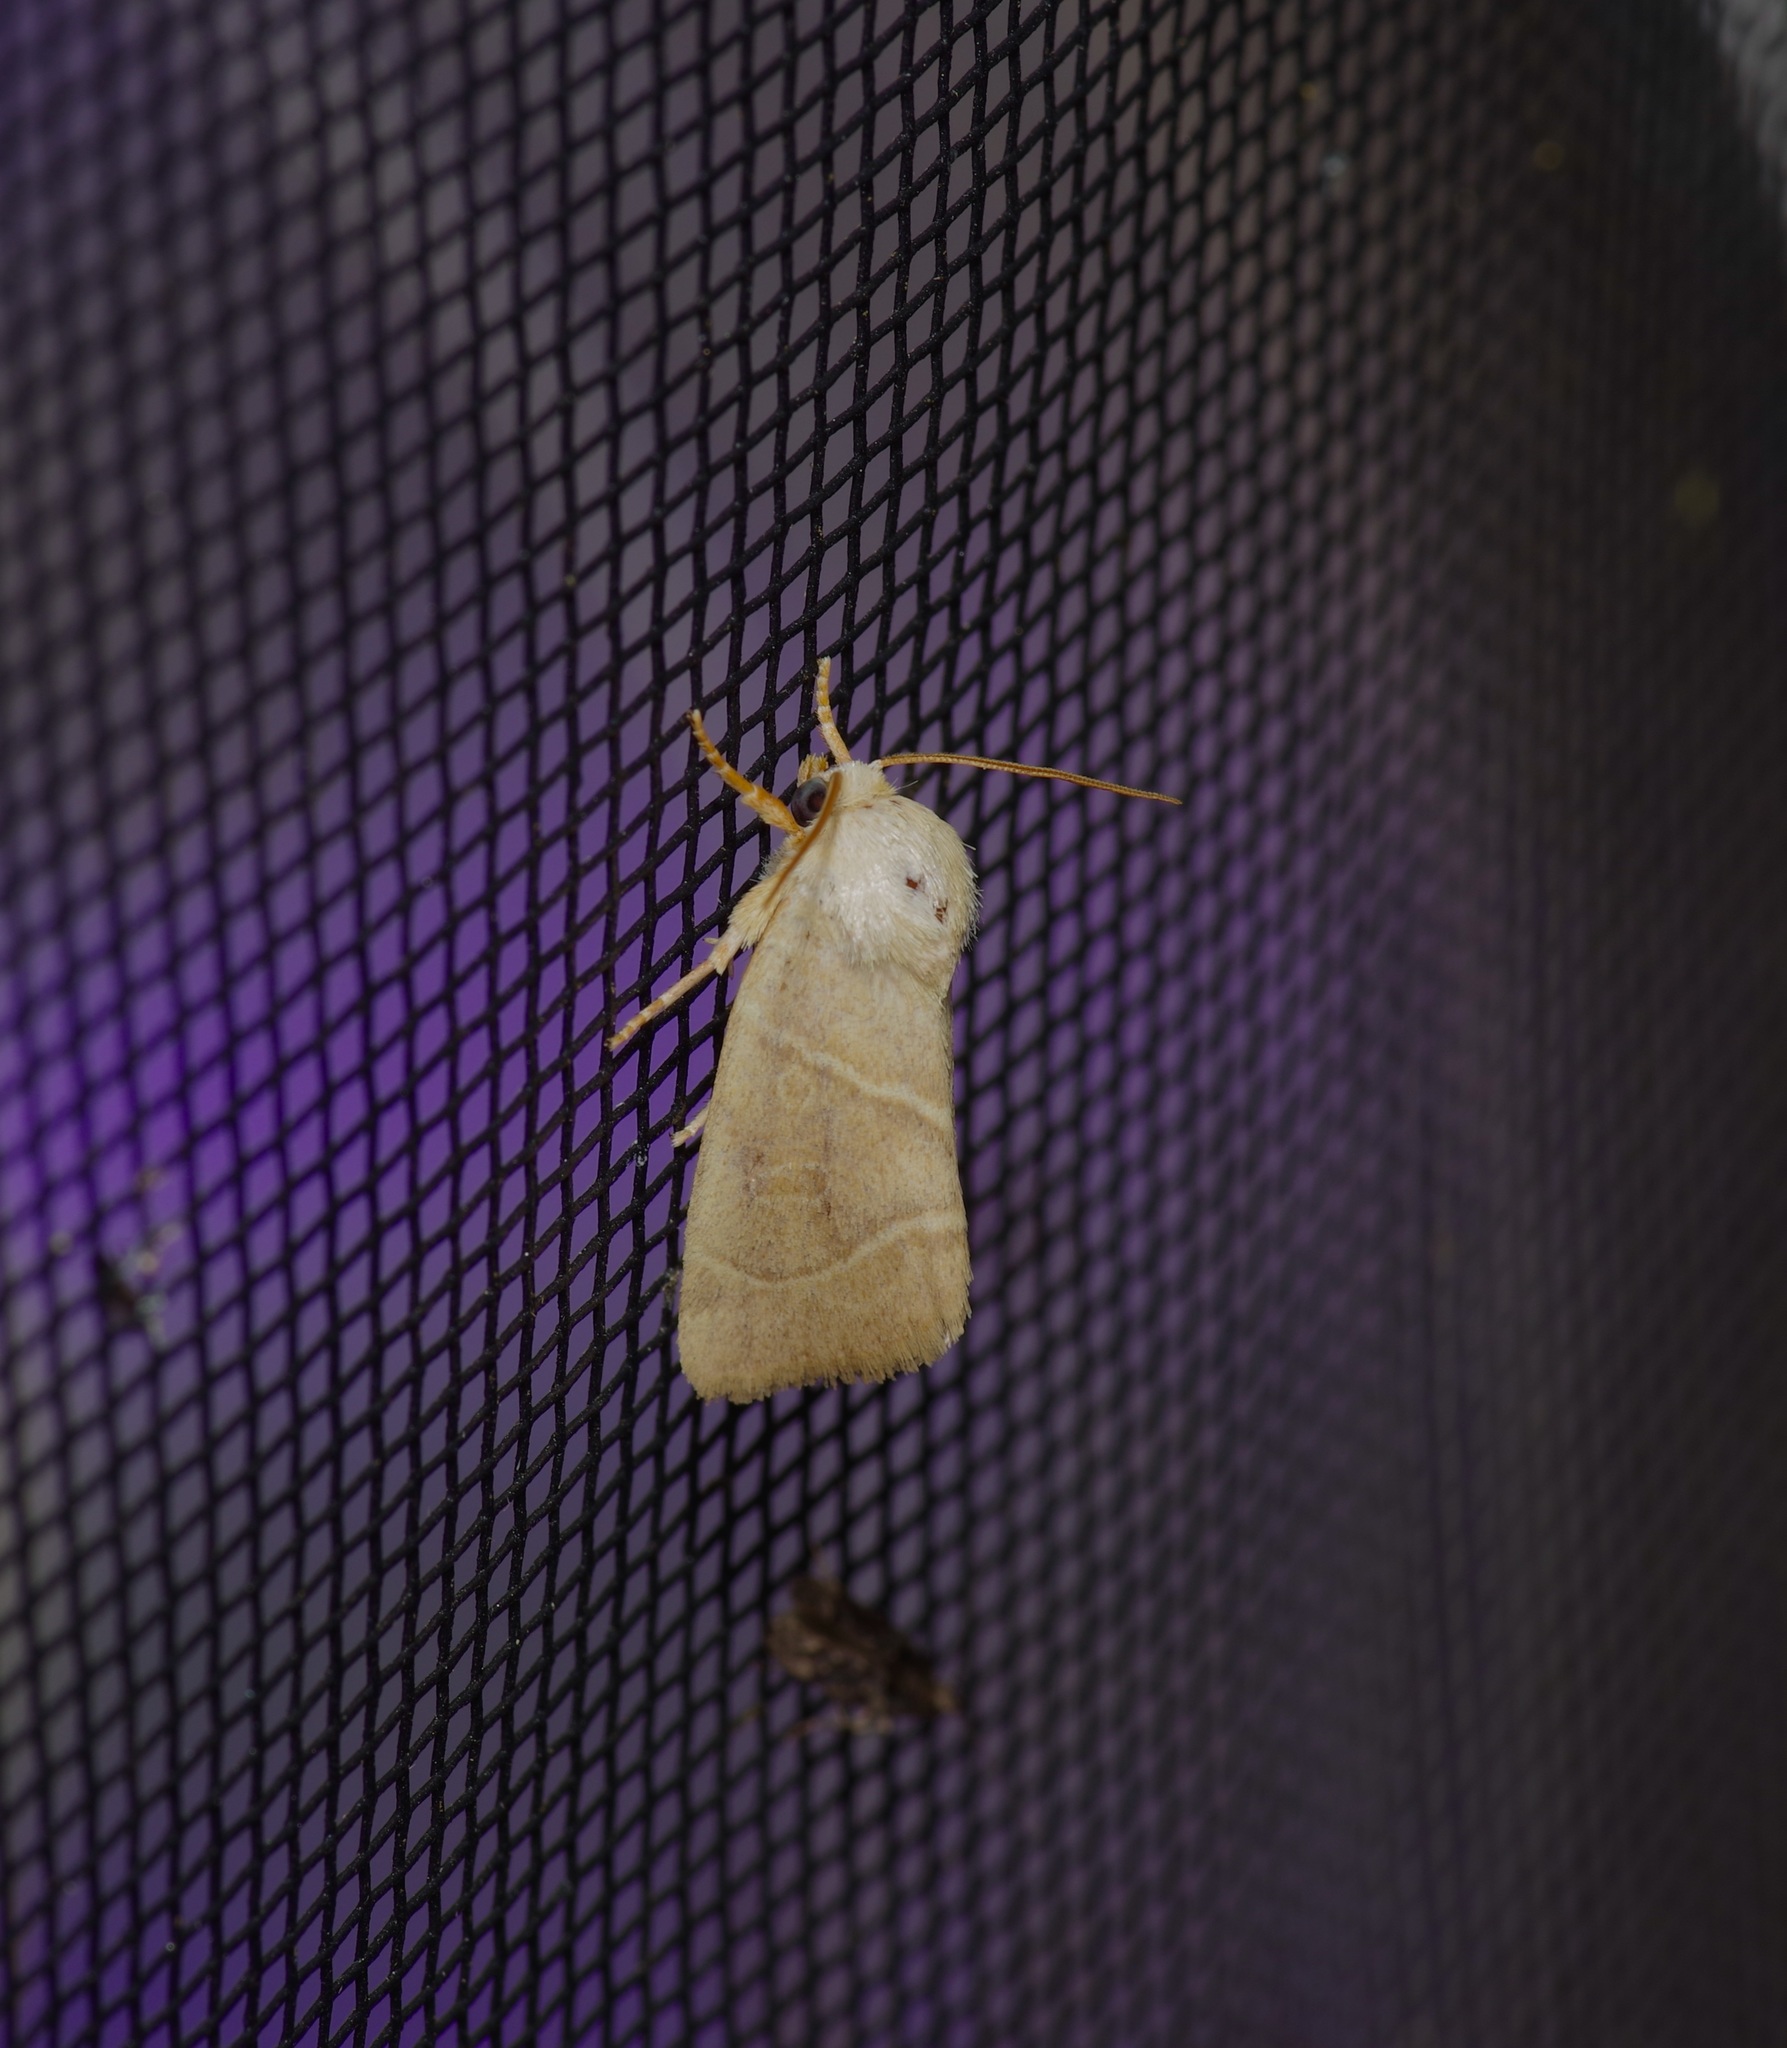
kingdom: Animalia
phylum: Arthropoda
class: Insecta
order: Lepidoptera
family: Noctuidae
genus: Cosmia
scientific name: Cosmia calami
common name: American dun-bar moth
